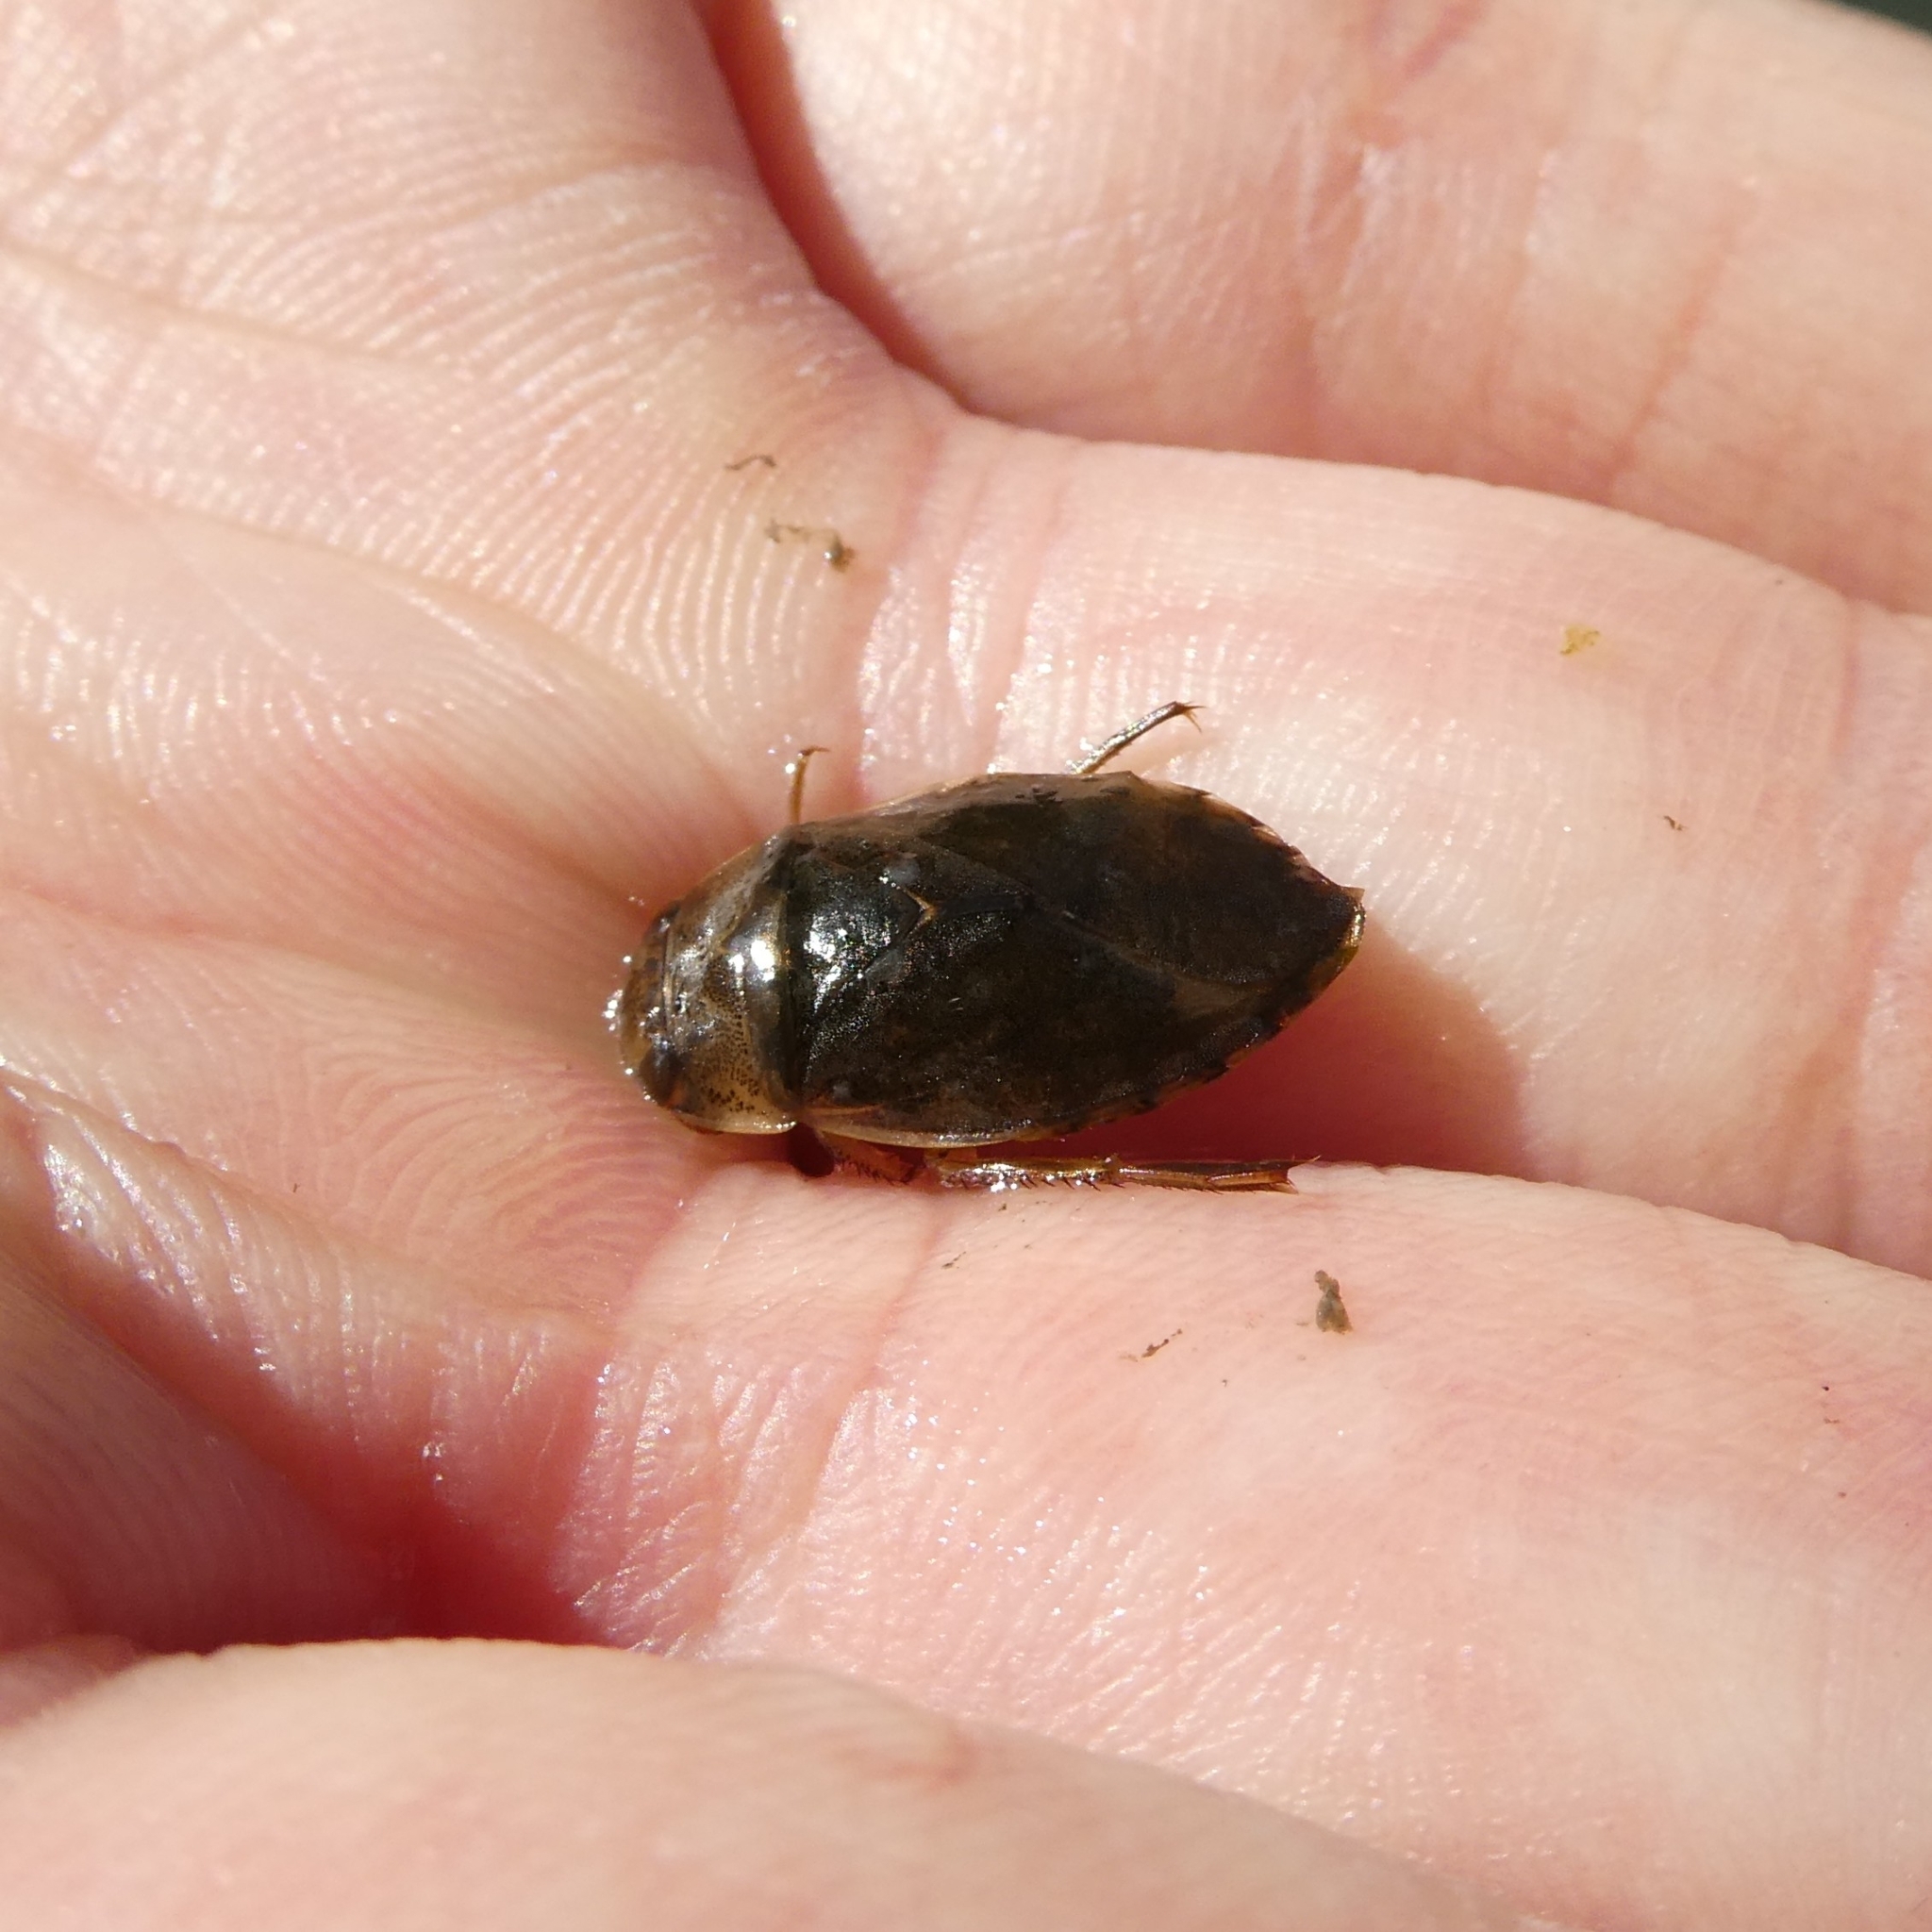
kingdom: Animalia
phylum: Arthropoda
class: Insecta
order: Hemiptera
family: Naucoridae
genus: Ilyocoris
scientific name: Ilyocoris cimicoides
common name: Saucer bugs
